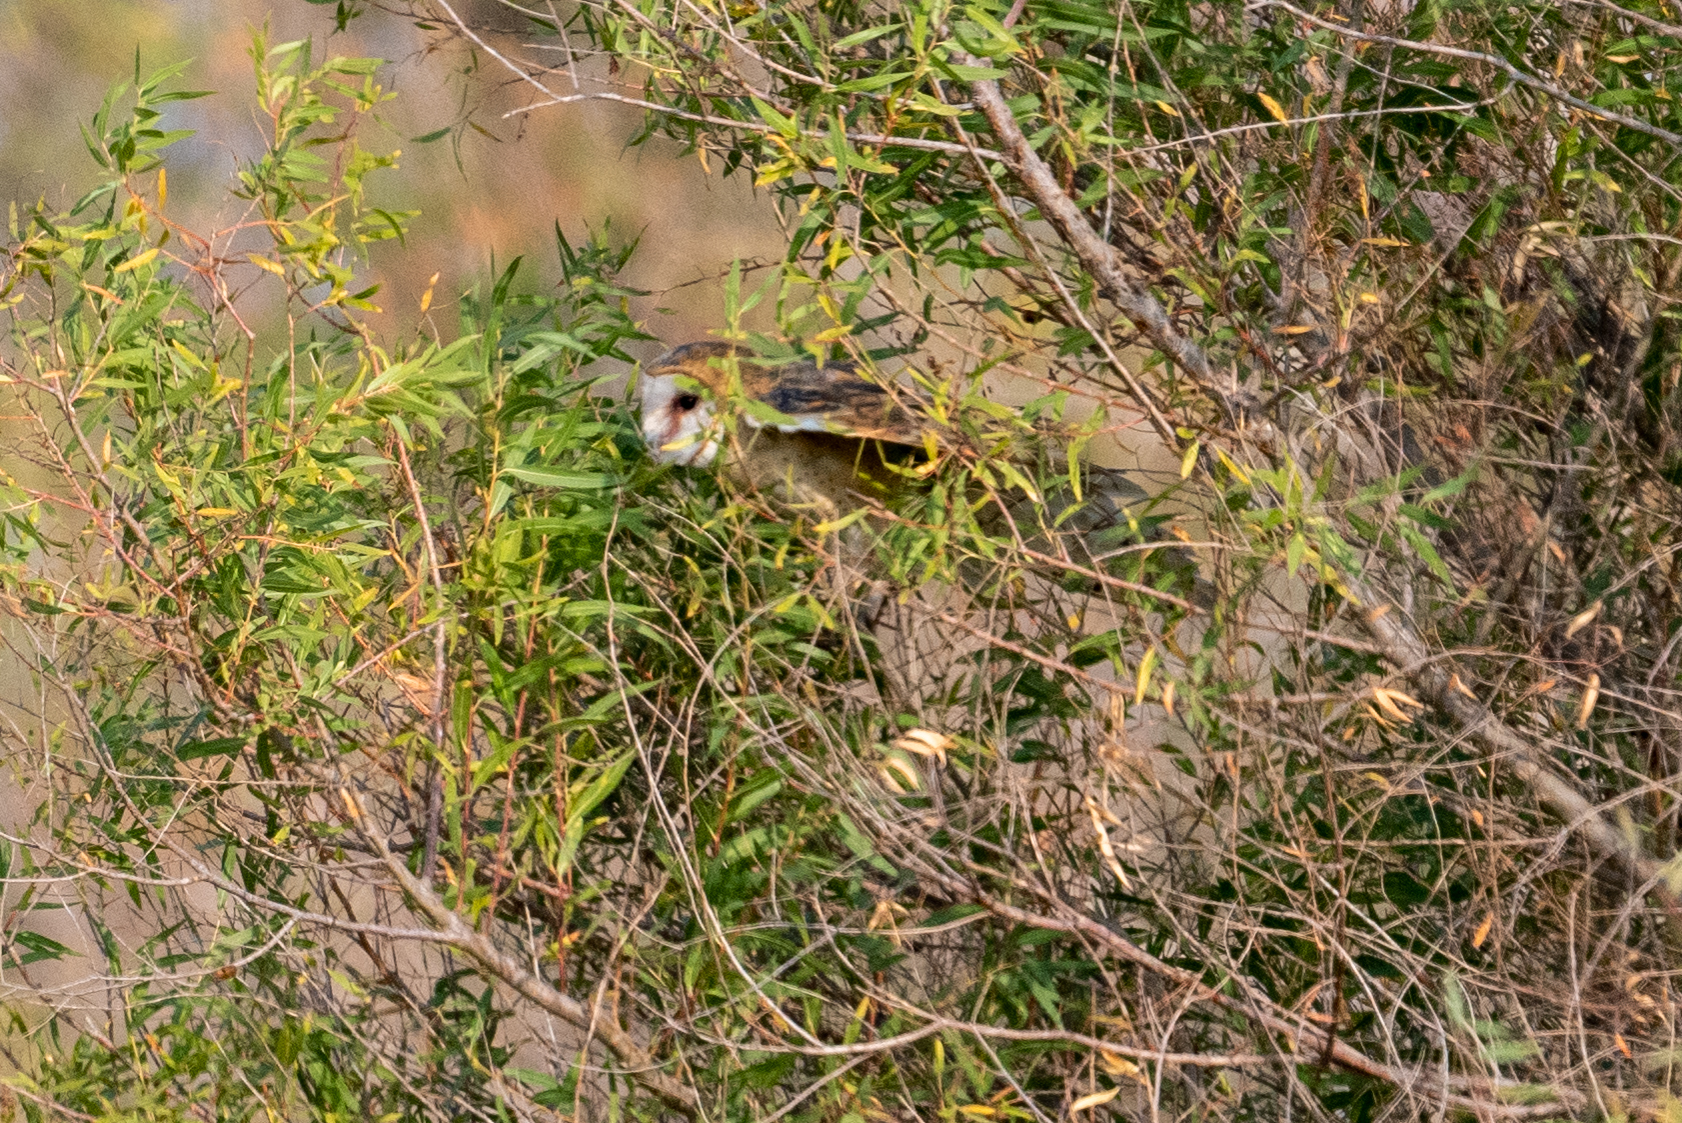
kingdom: Animalia
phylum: Chordata
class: Aves
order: Strigiformes
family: Tytonidae
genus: Tyto
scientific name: Tyto alba
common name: Barn owl
